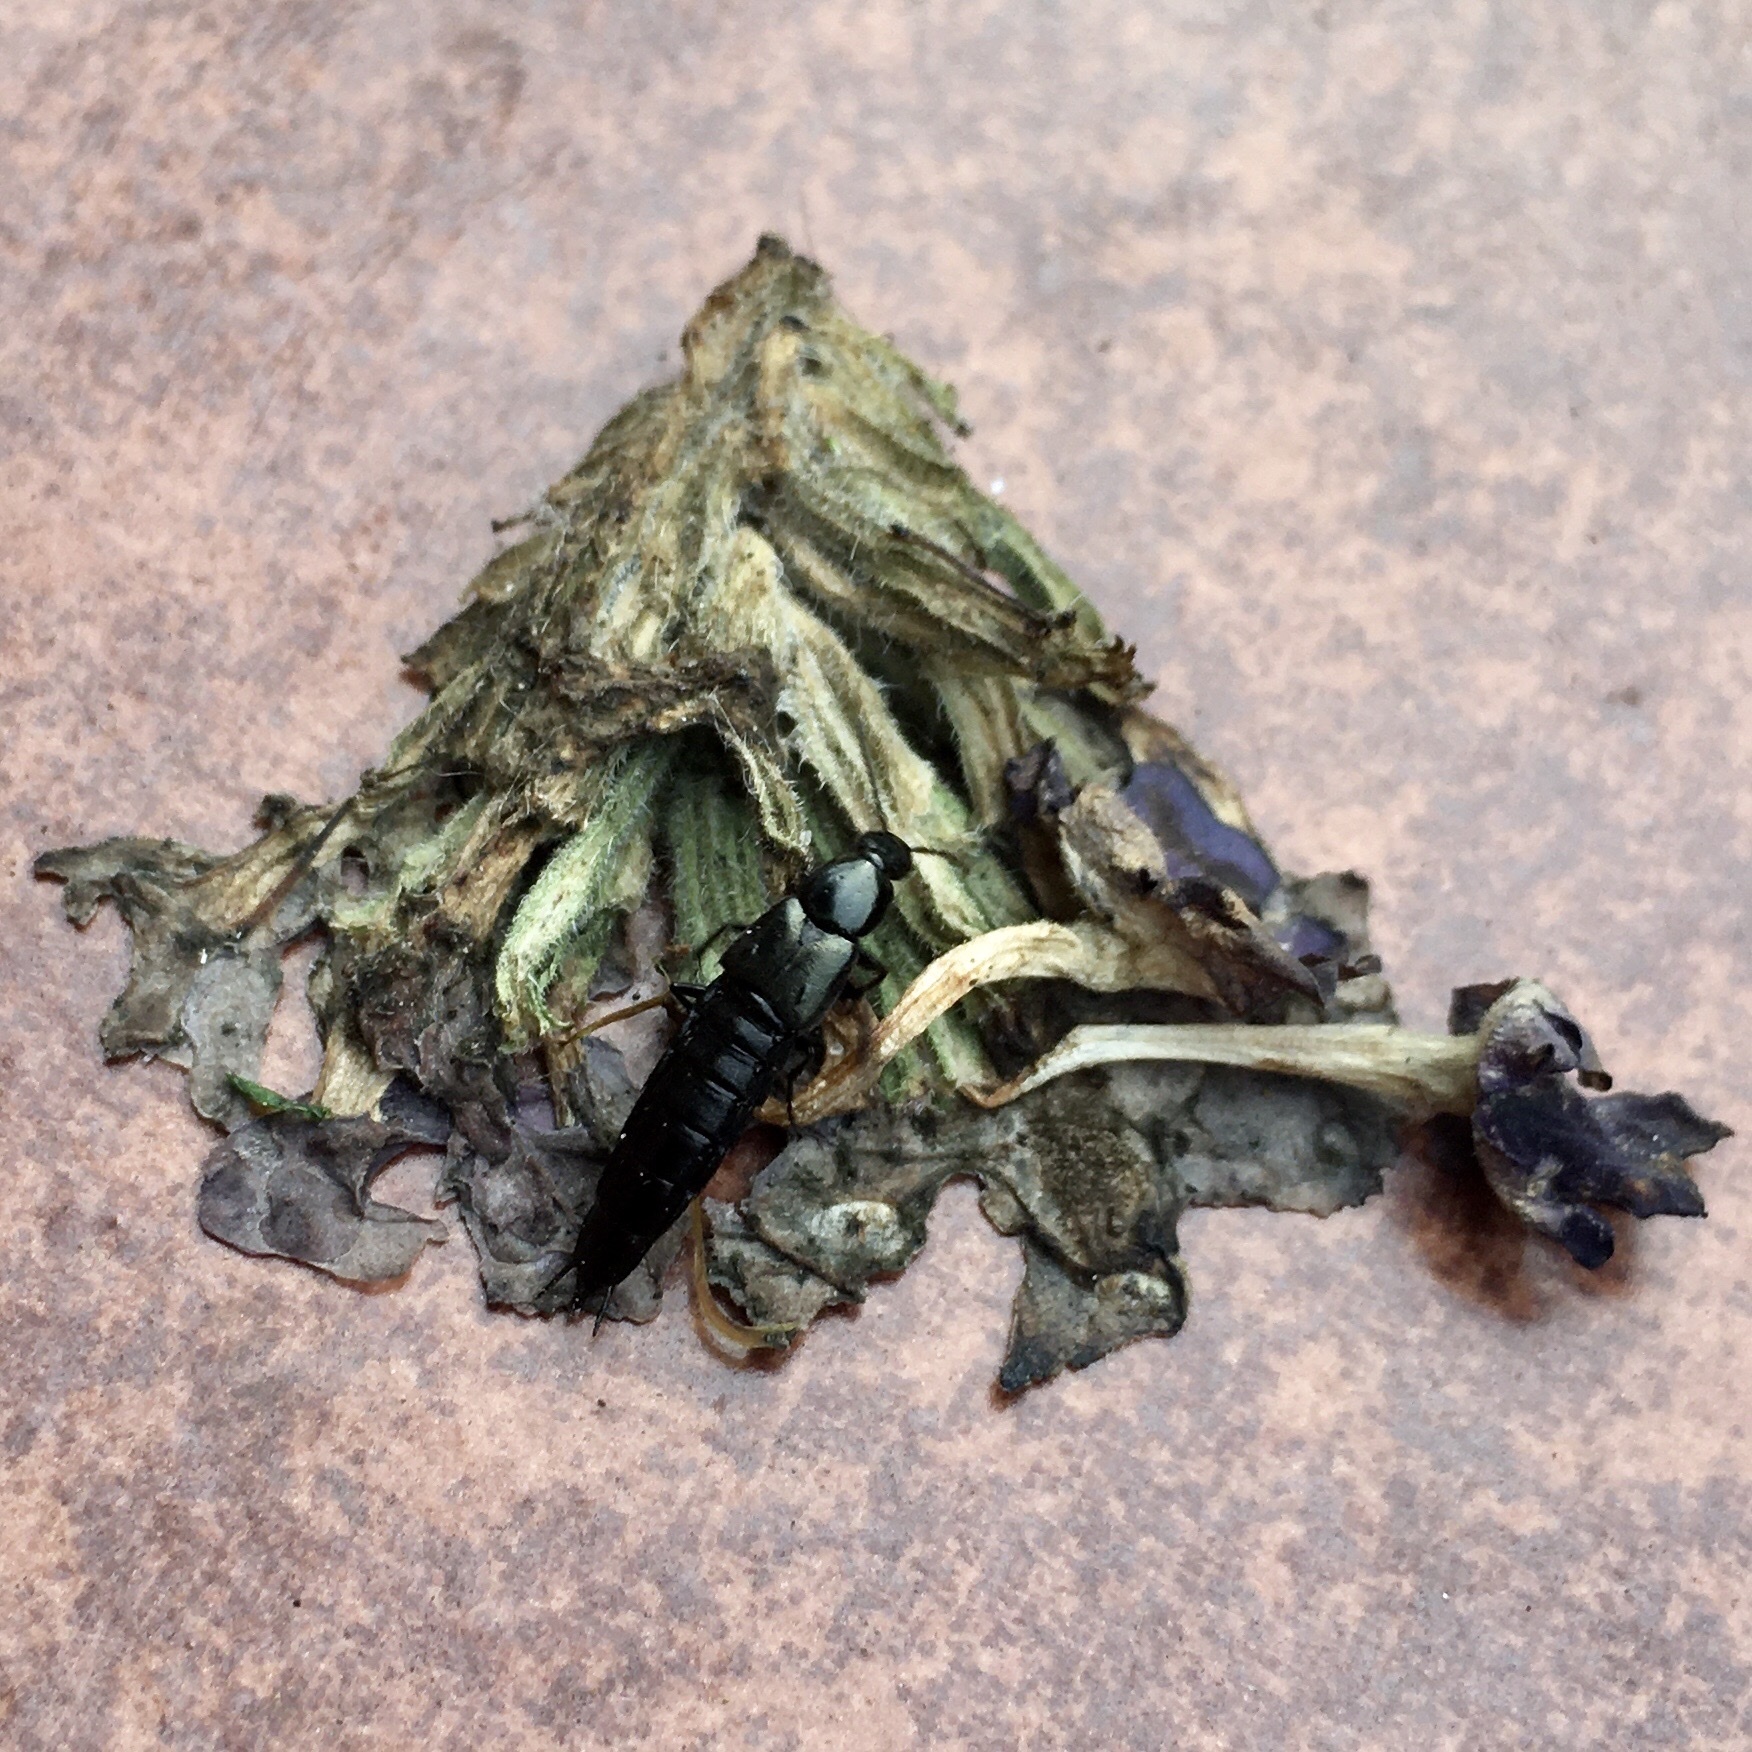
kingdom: Animalia
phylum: Arthropoda
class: Insecta
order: Coleoptera
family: Staphylinidae
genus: Philonthus
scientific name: Philonthus
